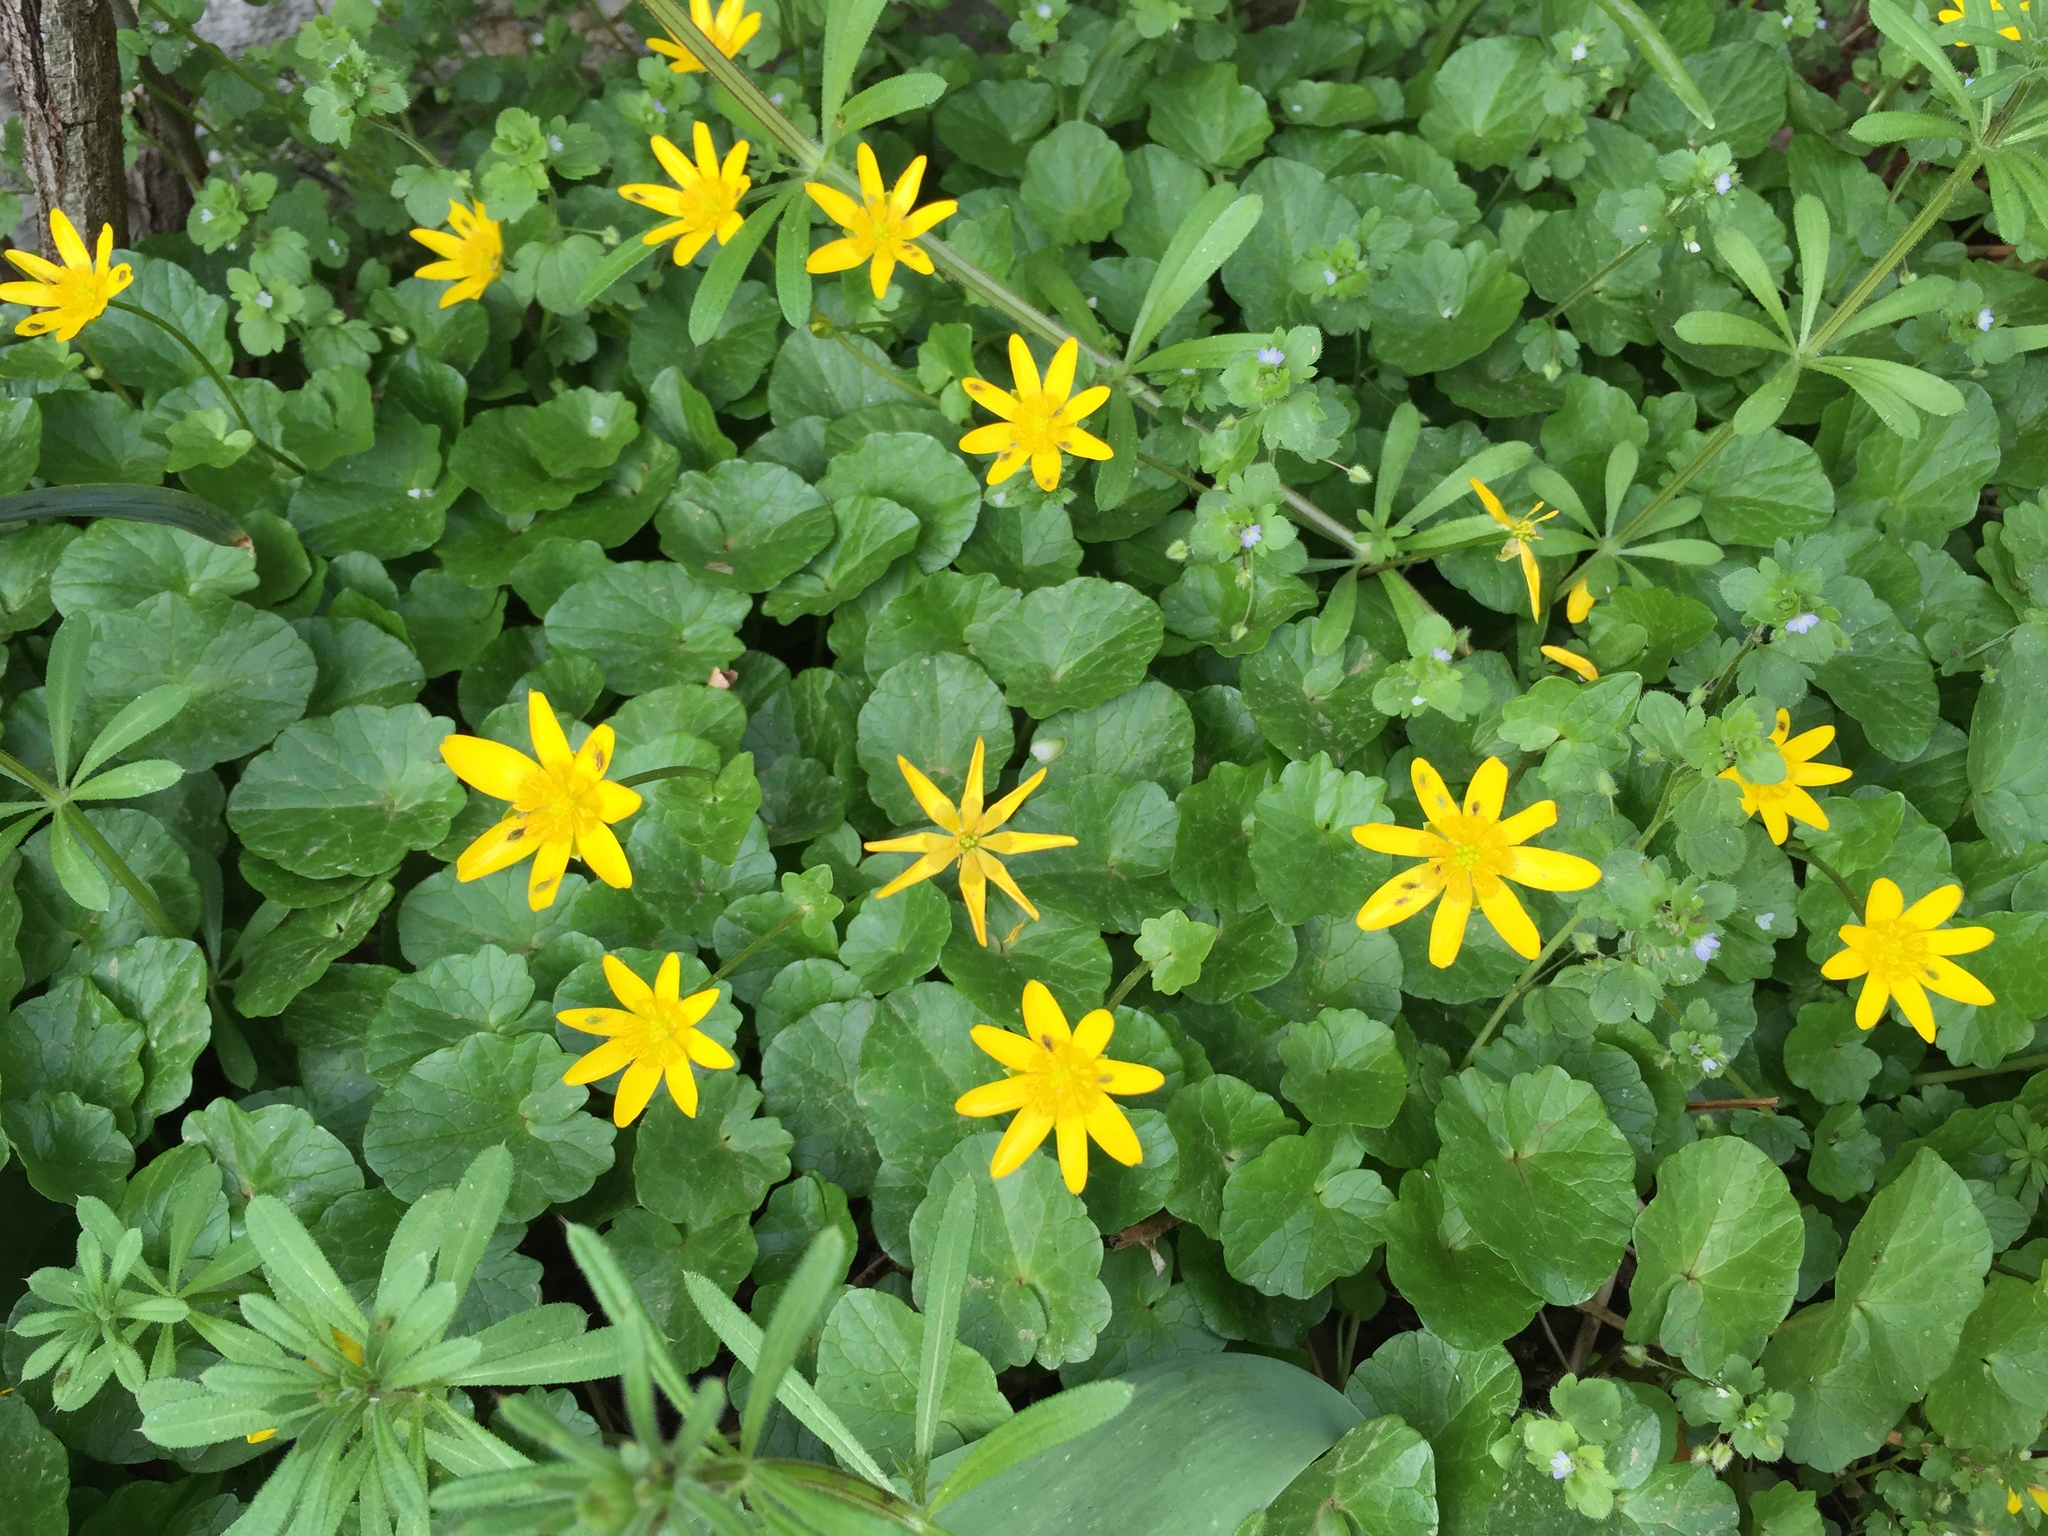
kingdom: Plantae
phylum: Tracheophyta
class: Magnoliopsida
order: Ranunculales
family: Ranunculaceae
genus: Ficaria
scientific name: Ficaria verna
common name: Lesser celandine
